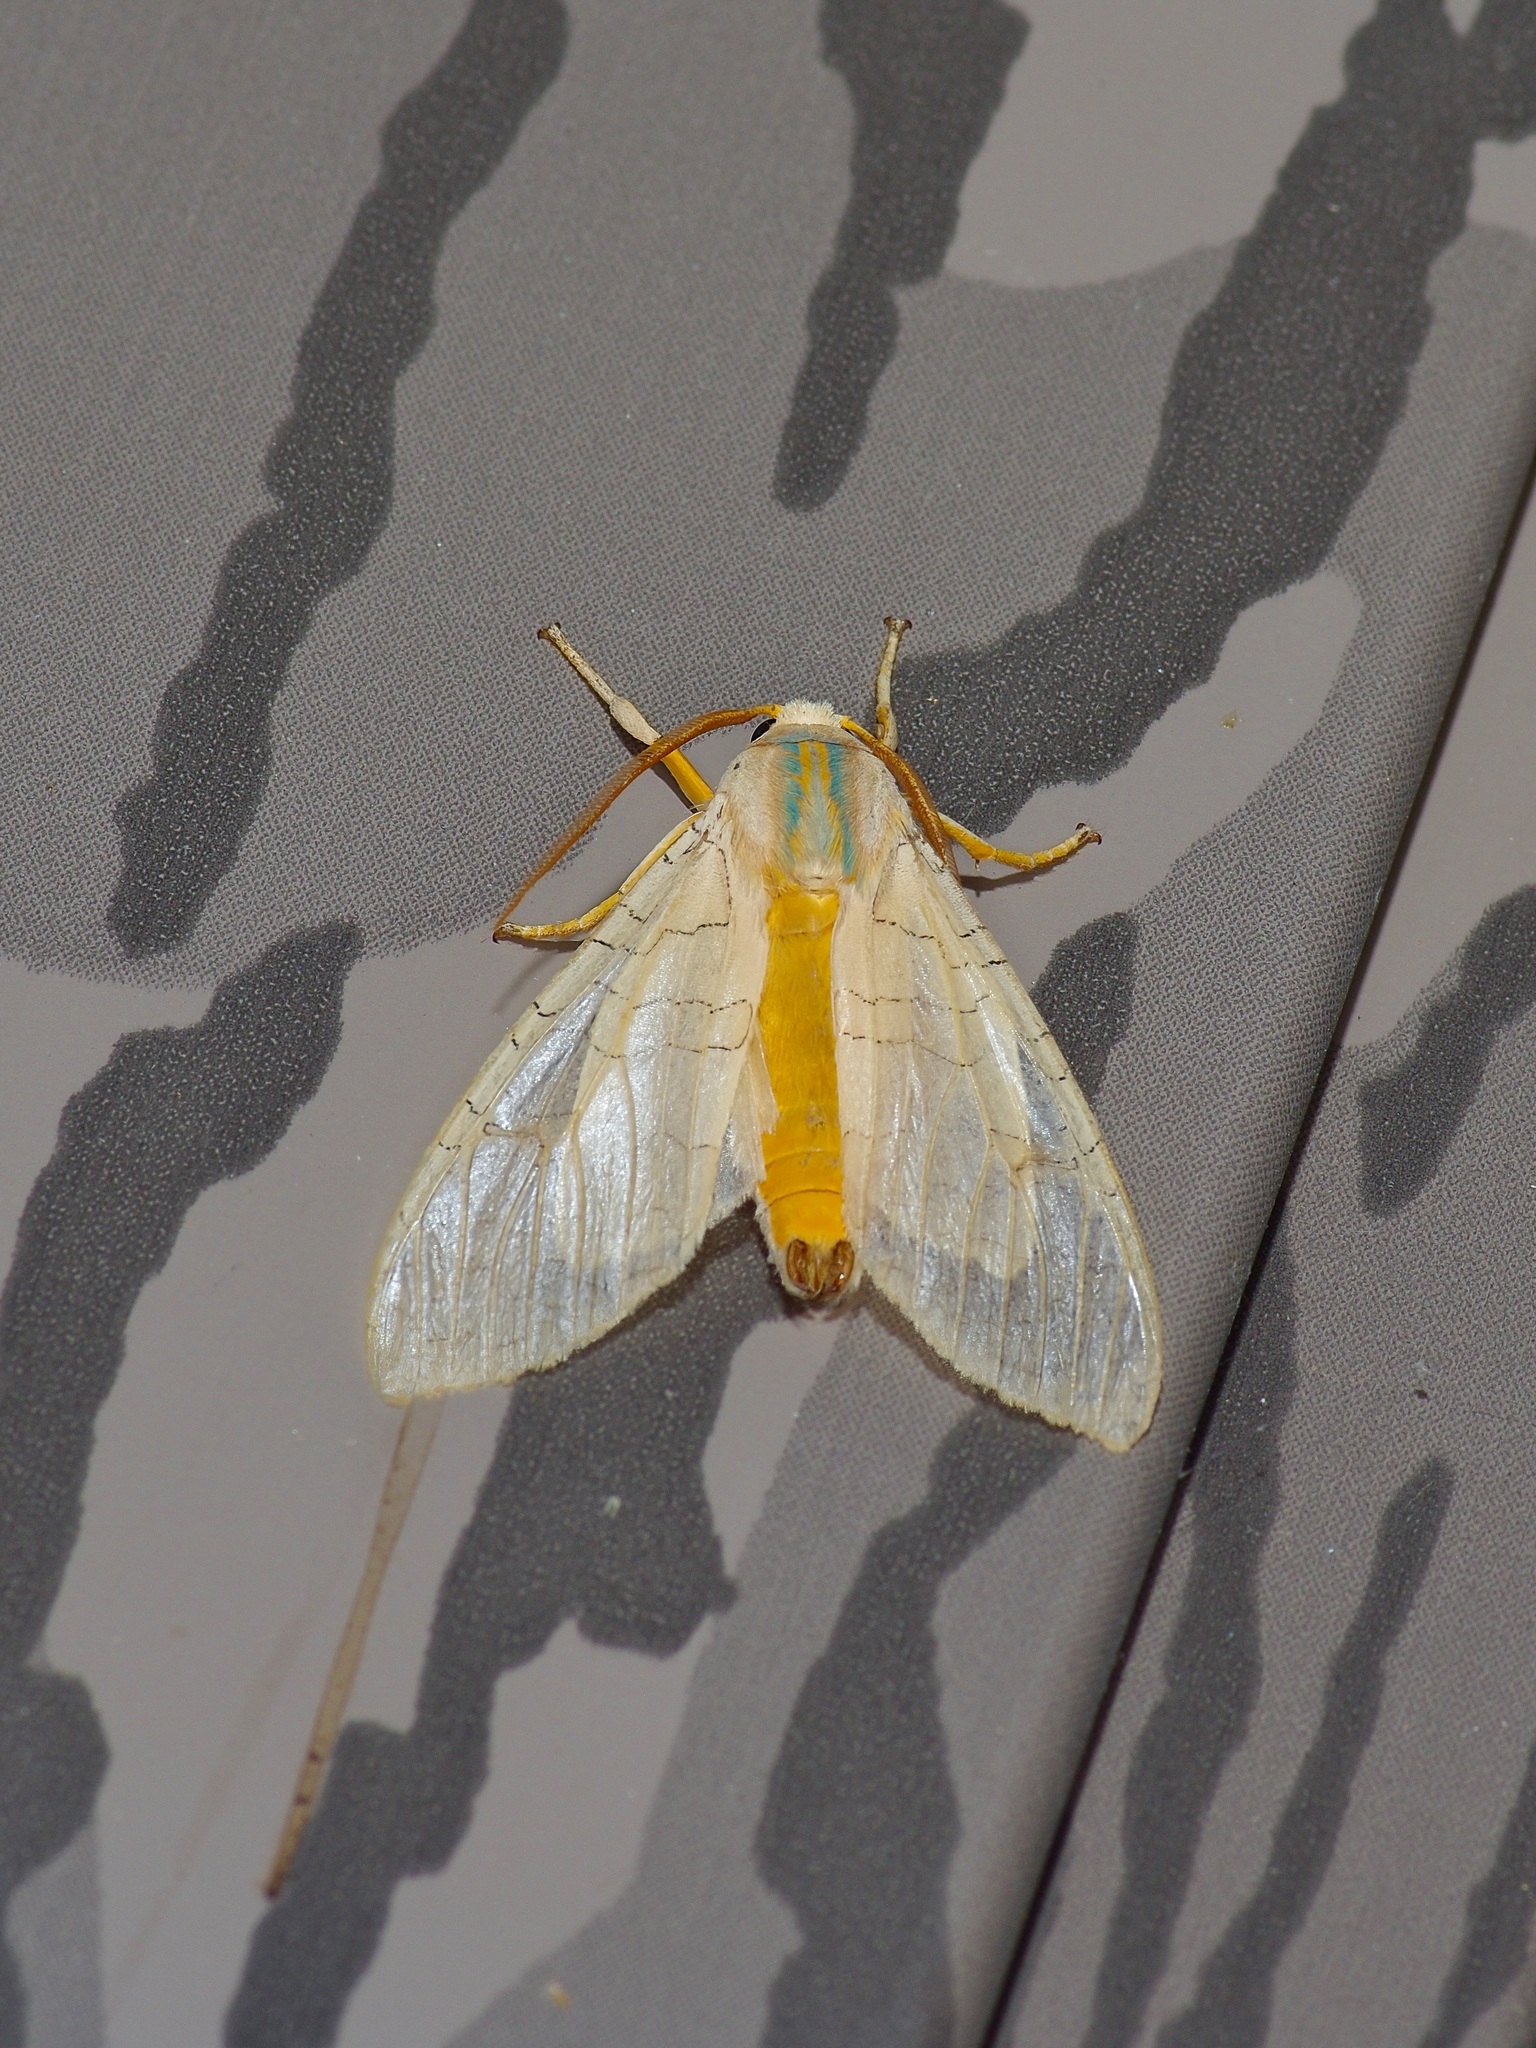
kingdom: Animalia
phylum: Arthropoda
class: Insecta
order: Lepidoptera
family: Erebidae
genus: Halysidota
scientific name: Halysidota harrisii
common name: Sycamore tussock moth
